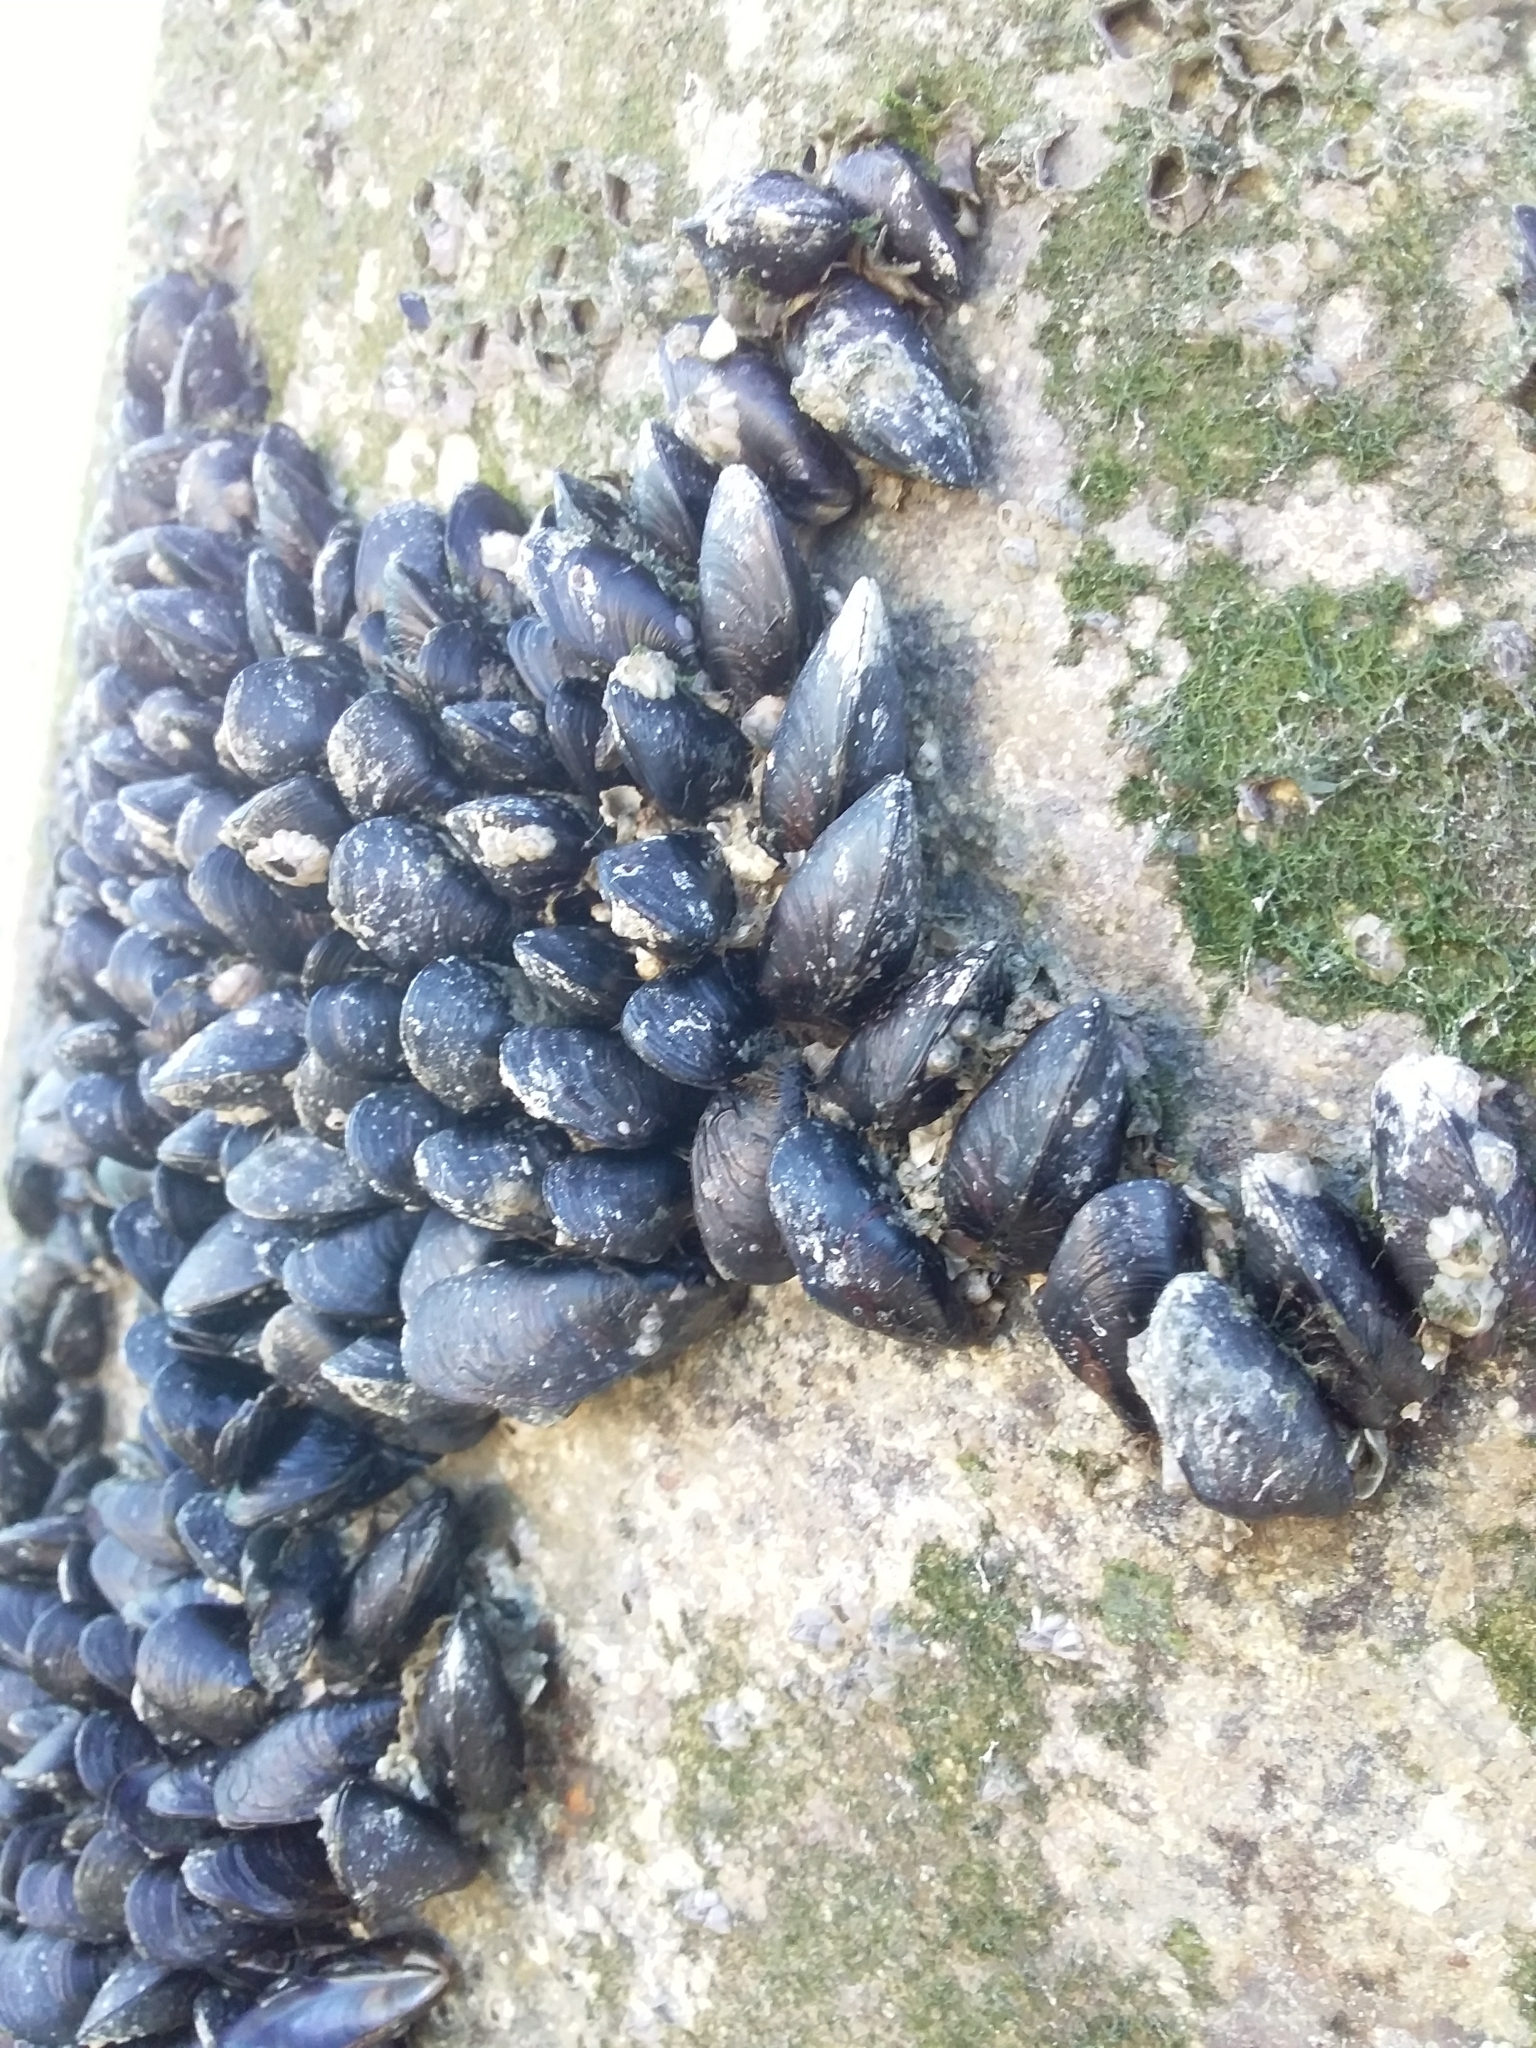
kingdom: Animalia
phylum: Mollusca
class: Bivalvia
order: Mytilida
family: Mytilidae
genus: Xenostrobus
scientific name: Xenostrobus neozelanicus
